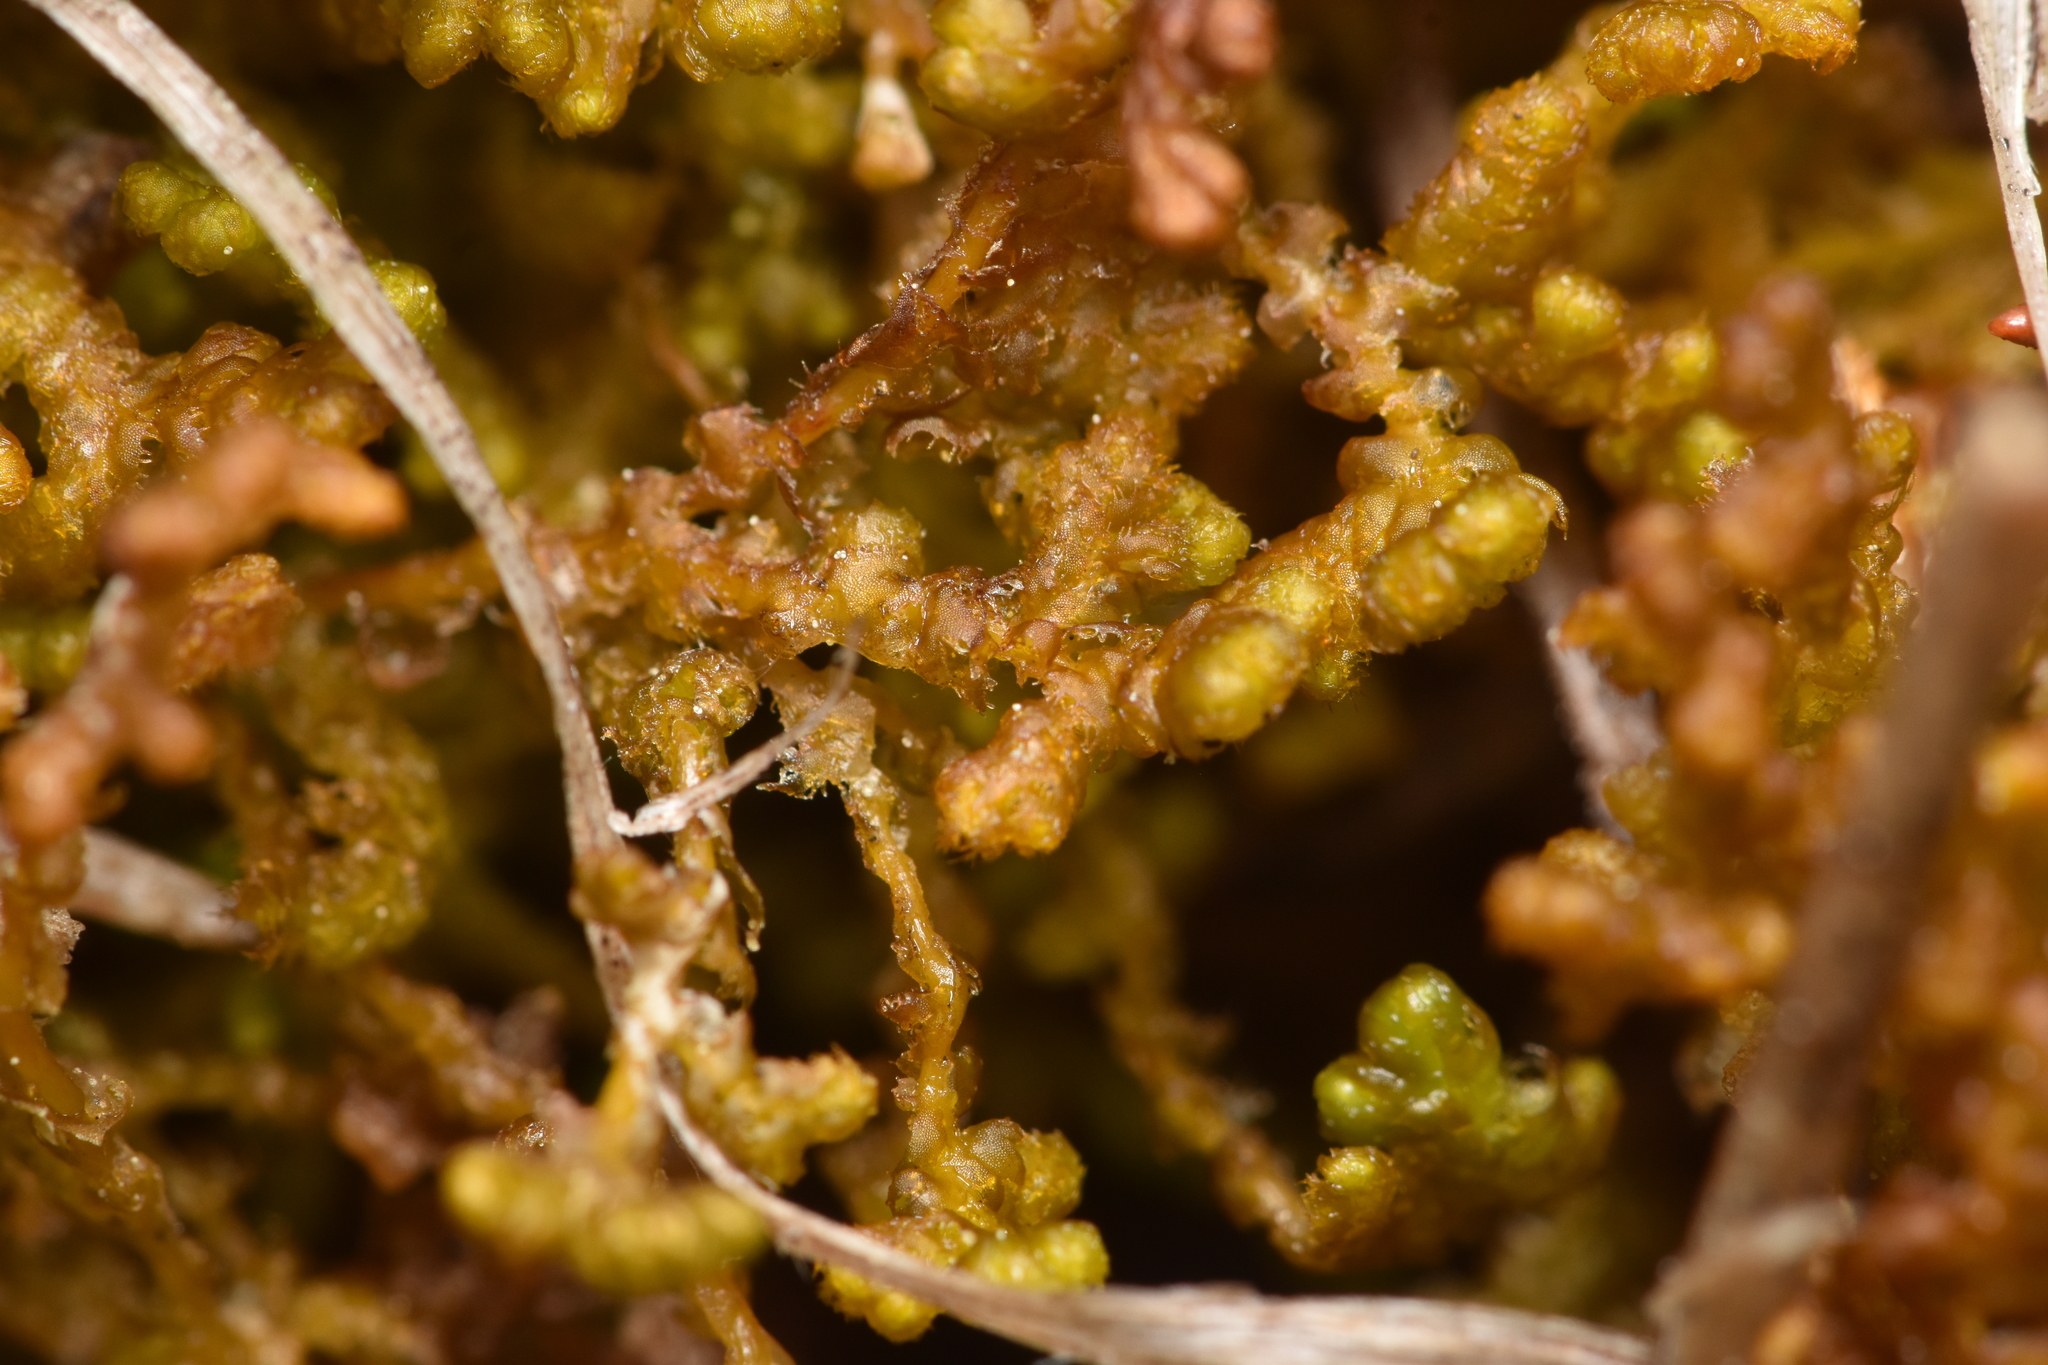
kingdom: Plantae
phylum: Marchantiophyta
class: Jungermanniopsida
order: Ptilidiales
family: Ptilidiaceae
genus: Ptilidium
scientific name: Ptilidium ciliare
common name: Ciliate fringewort
